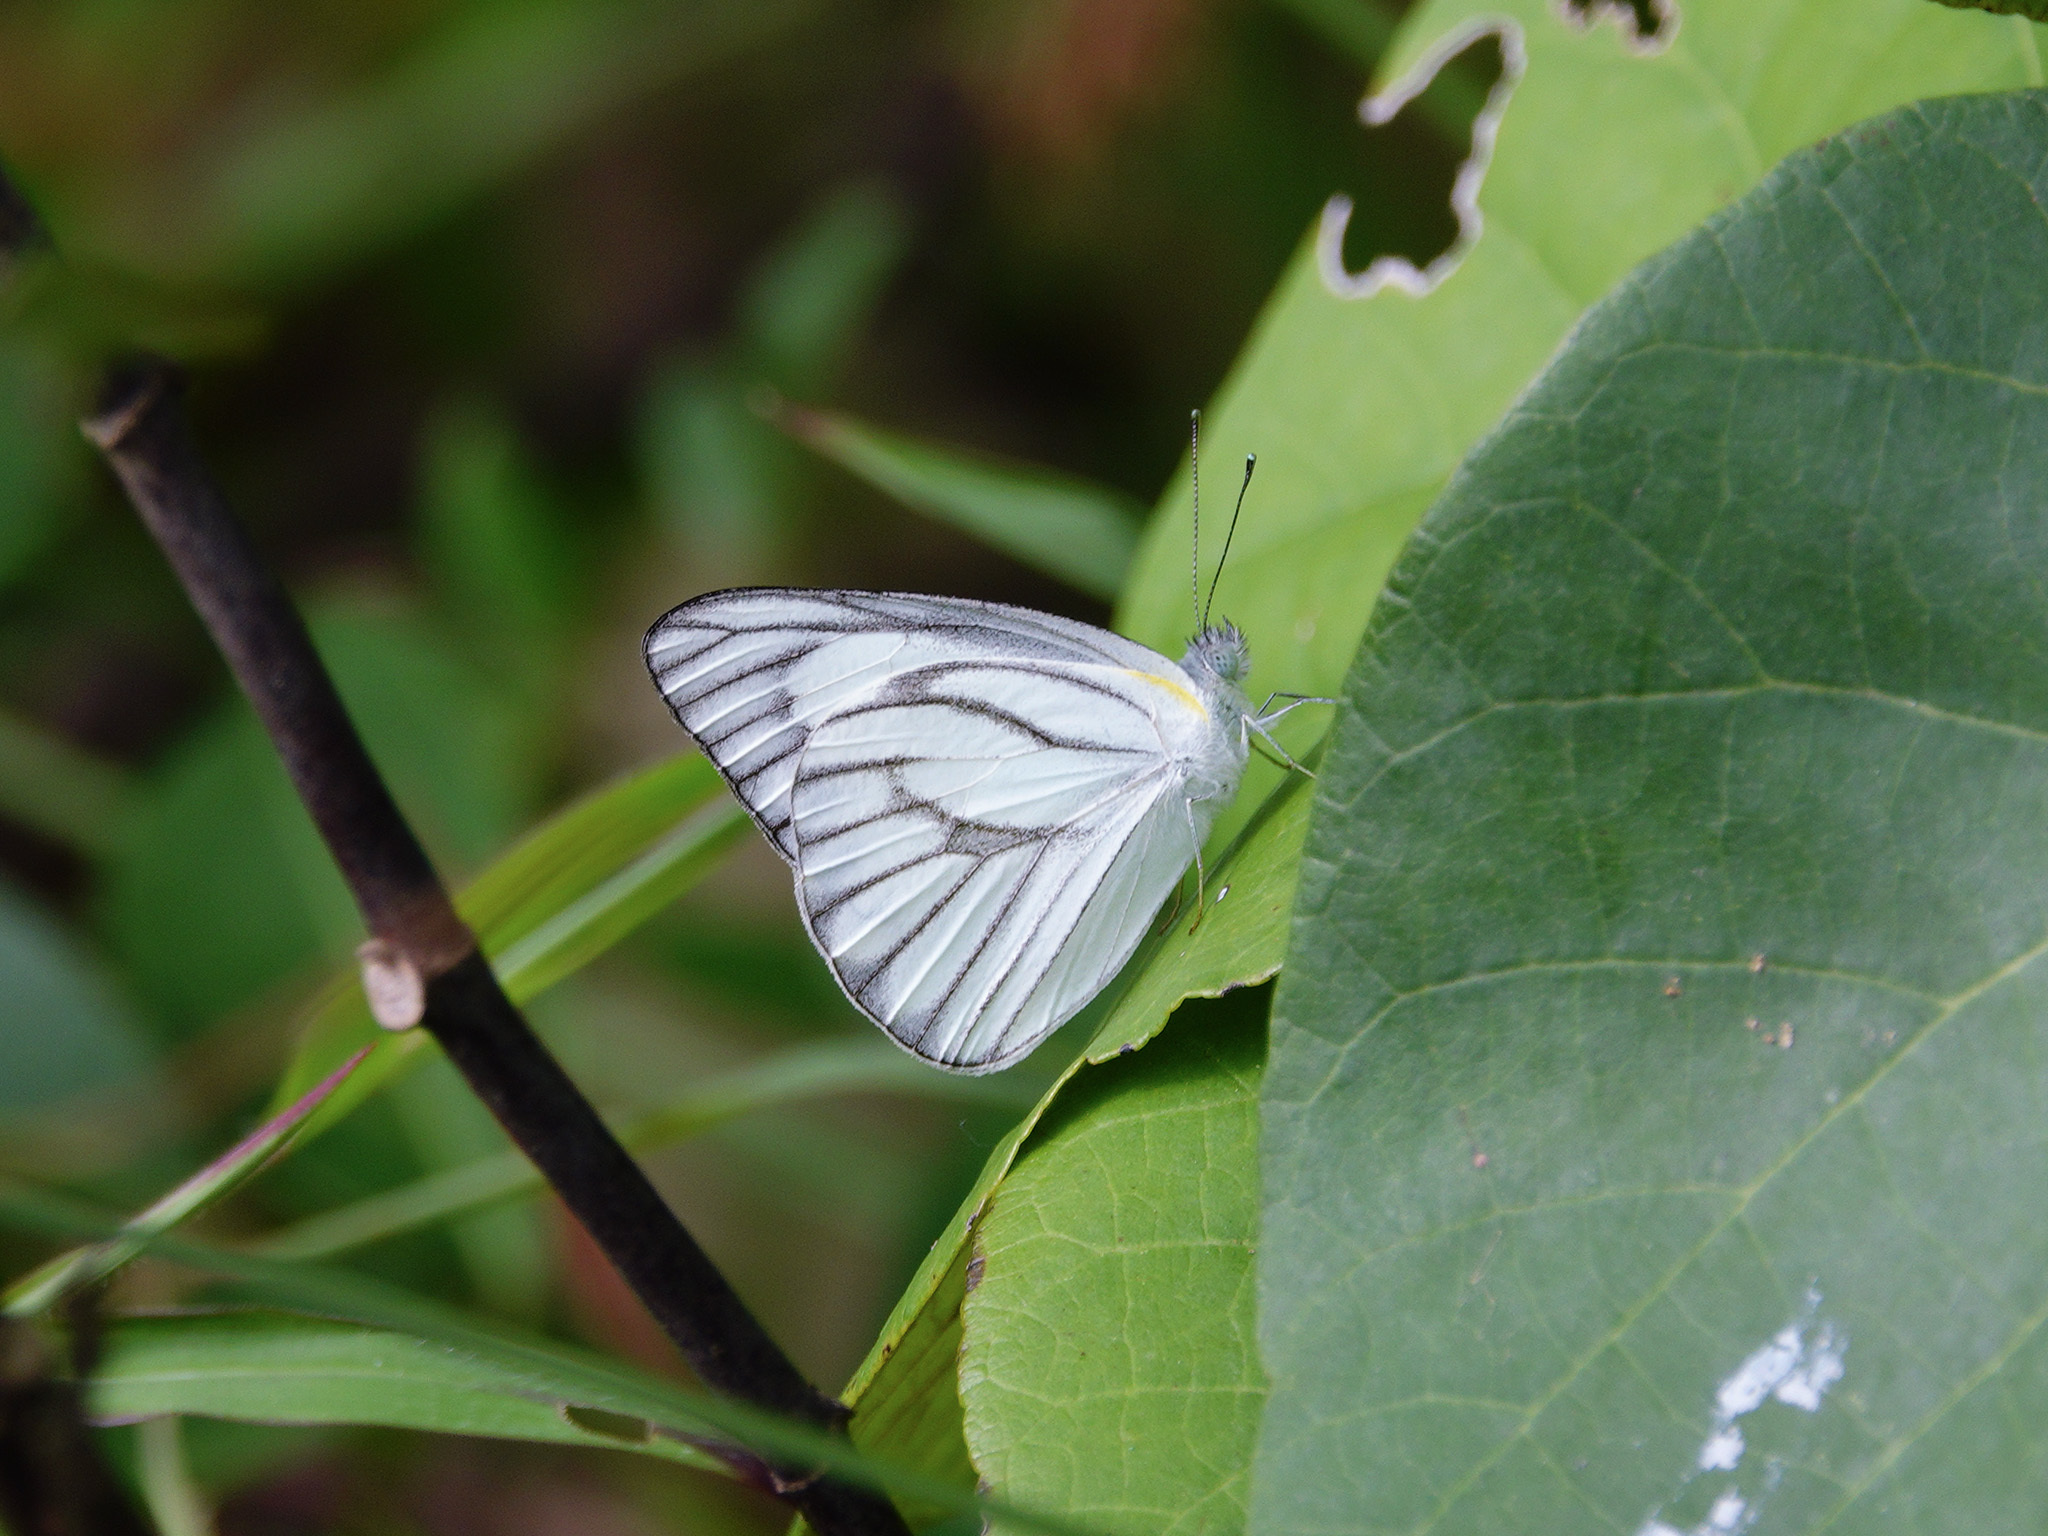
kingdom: Animalia
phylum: Arthropoda
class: Insecta
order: Lepidoptera
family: Pieridae
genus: Appias
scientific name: Appias libythea
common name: Striped albatross
